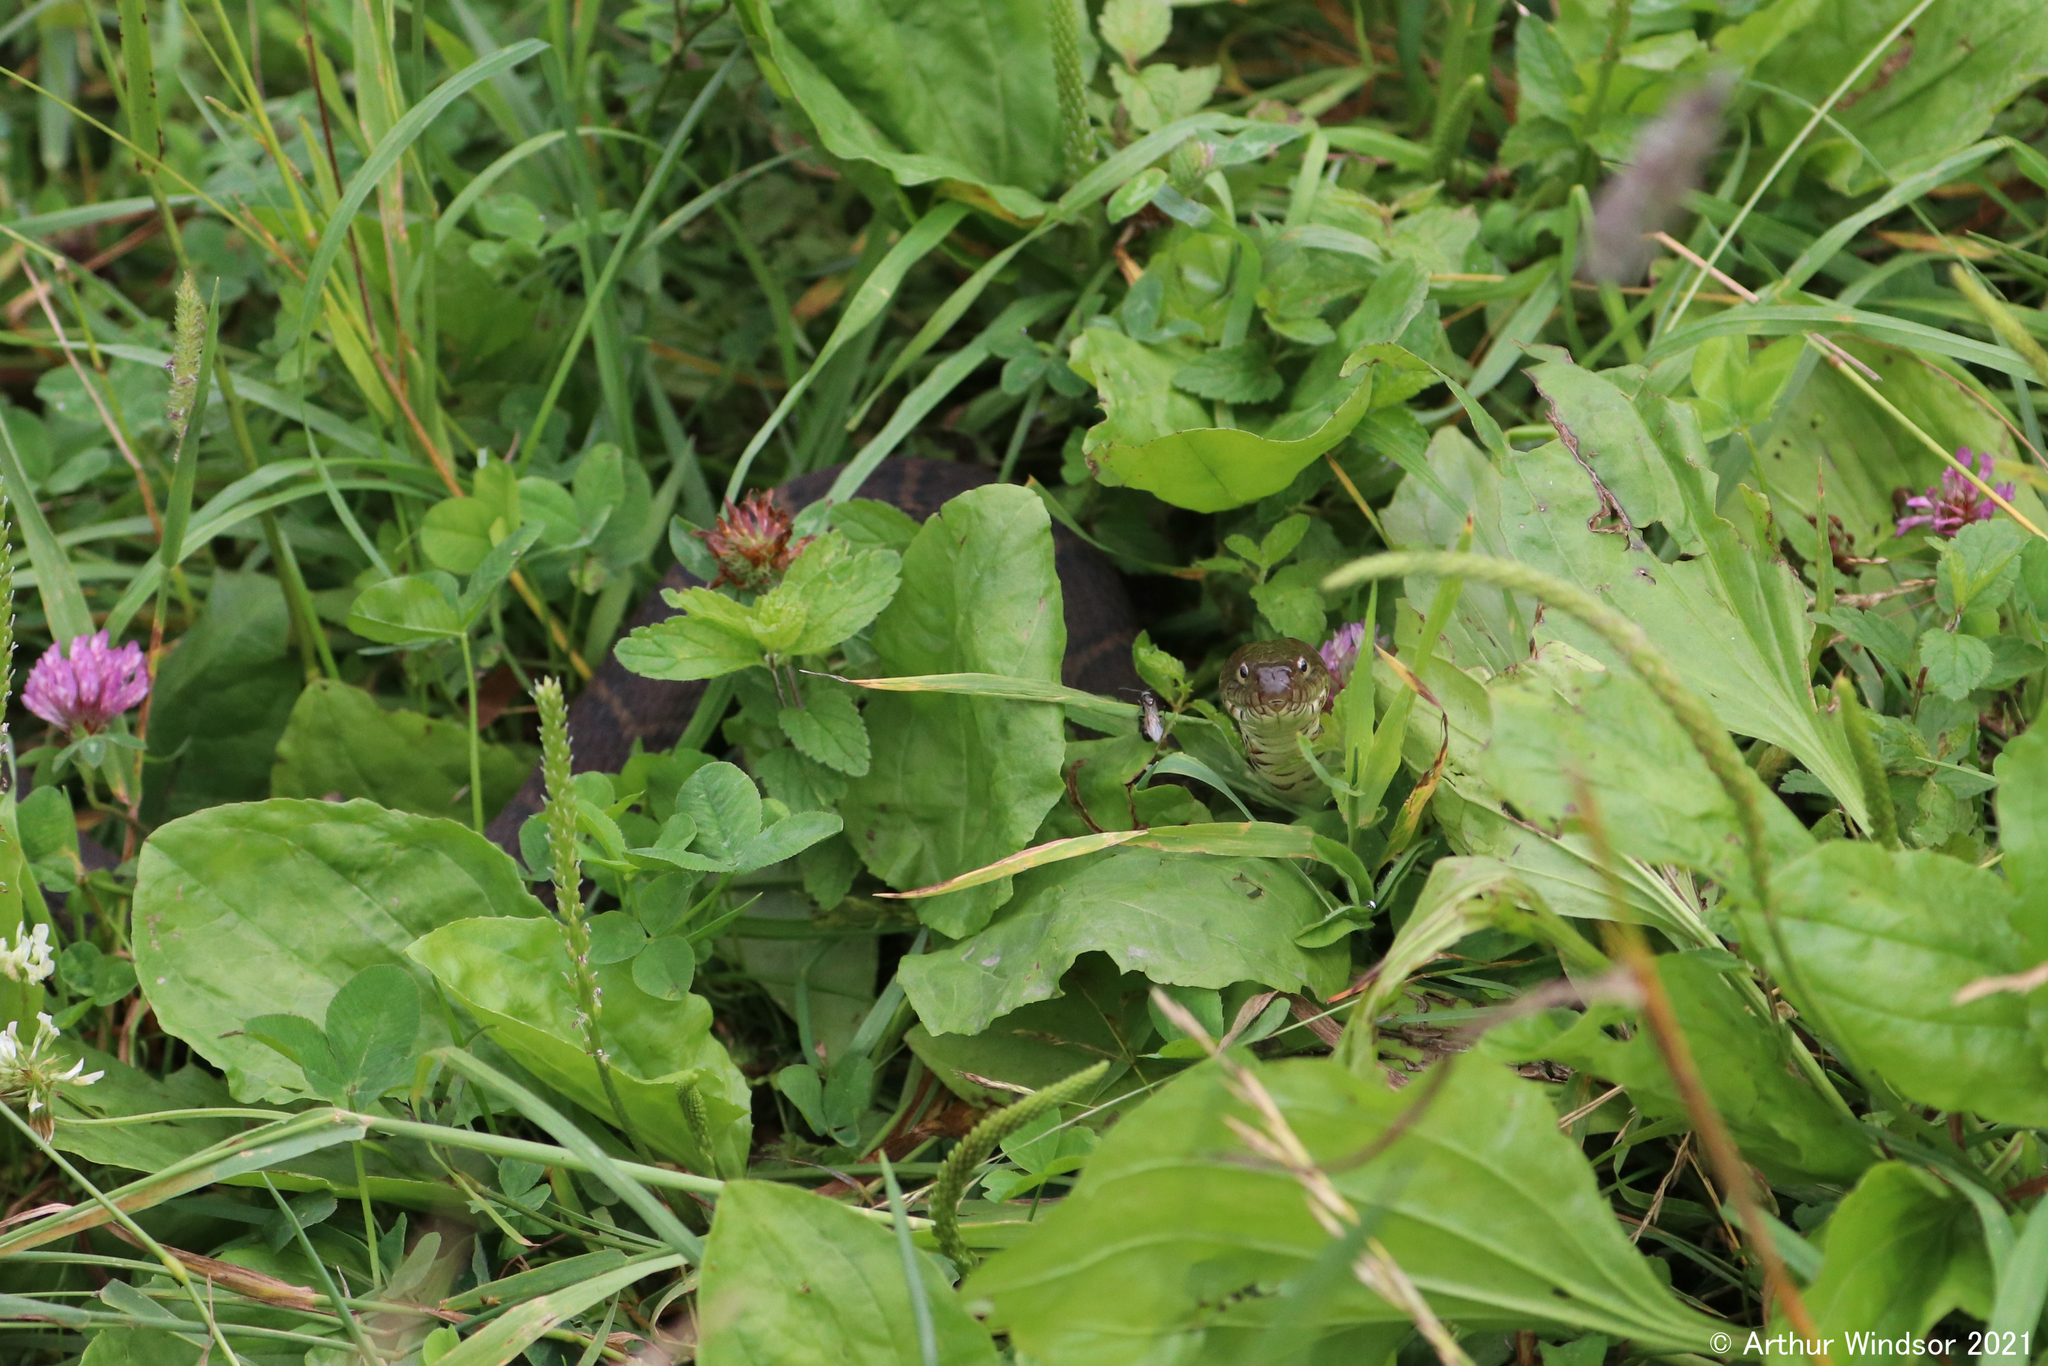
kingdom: Animalia
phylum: Chordata
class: Squamata
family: Colubridae
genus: Nerodia
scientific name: Nerodia sipedon
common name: Northern water snake
